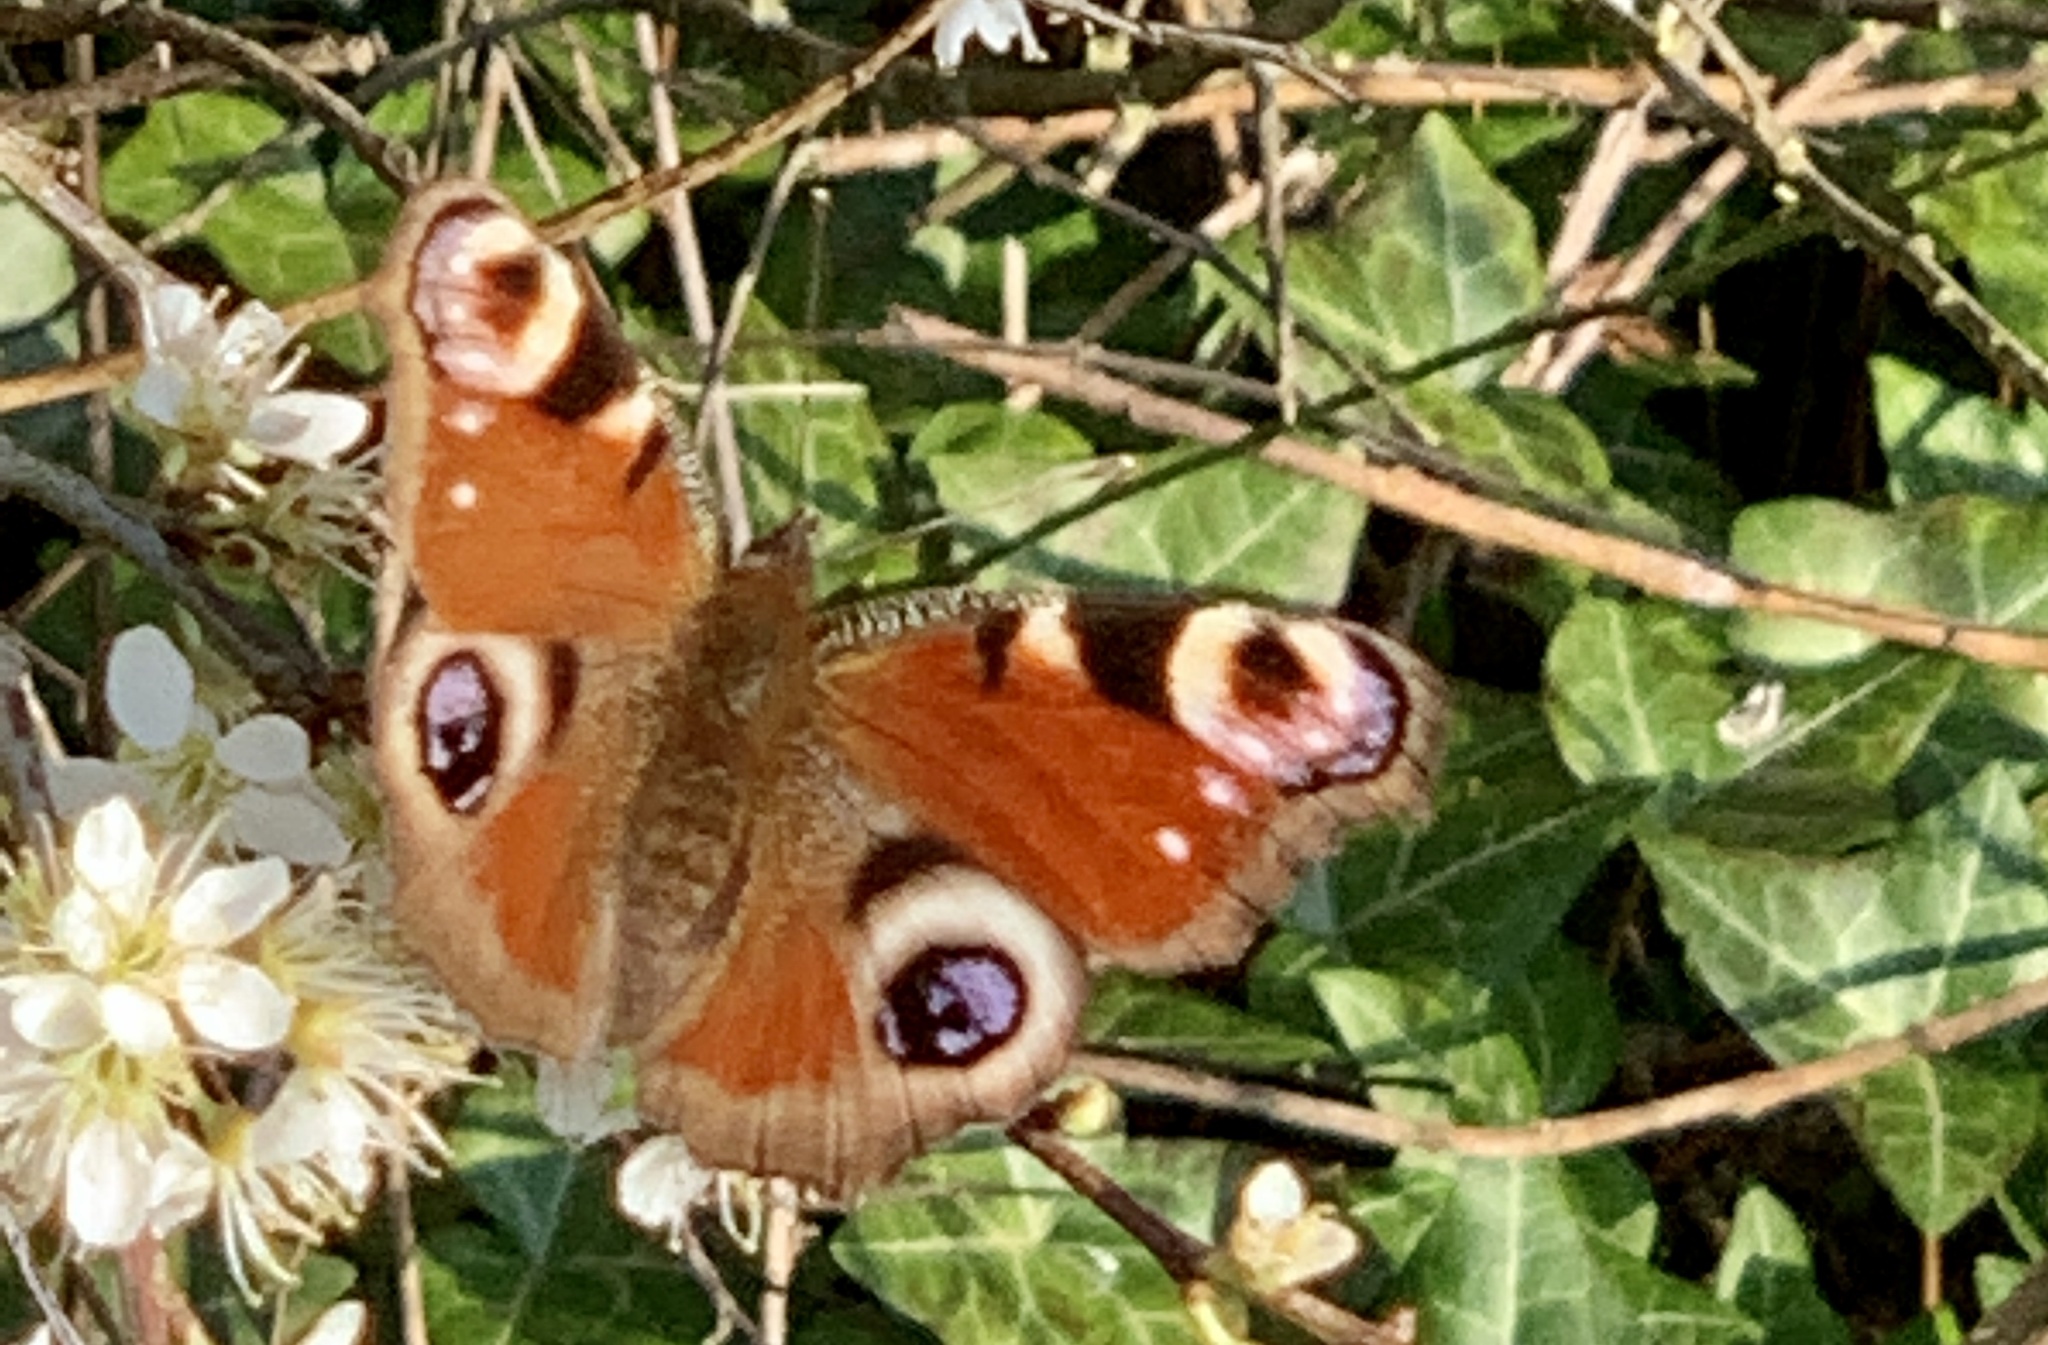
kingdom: Animalia
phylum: Arthropoda
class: Insecta
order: Lepidoptera
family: Nymphalidae
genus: Aglais
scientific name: Aglais io
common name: Peacock
